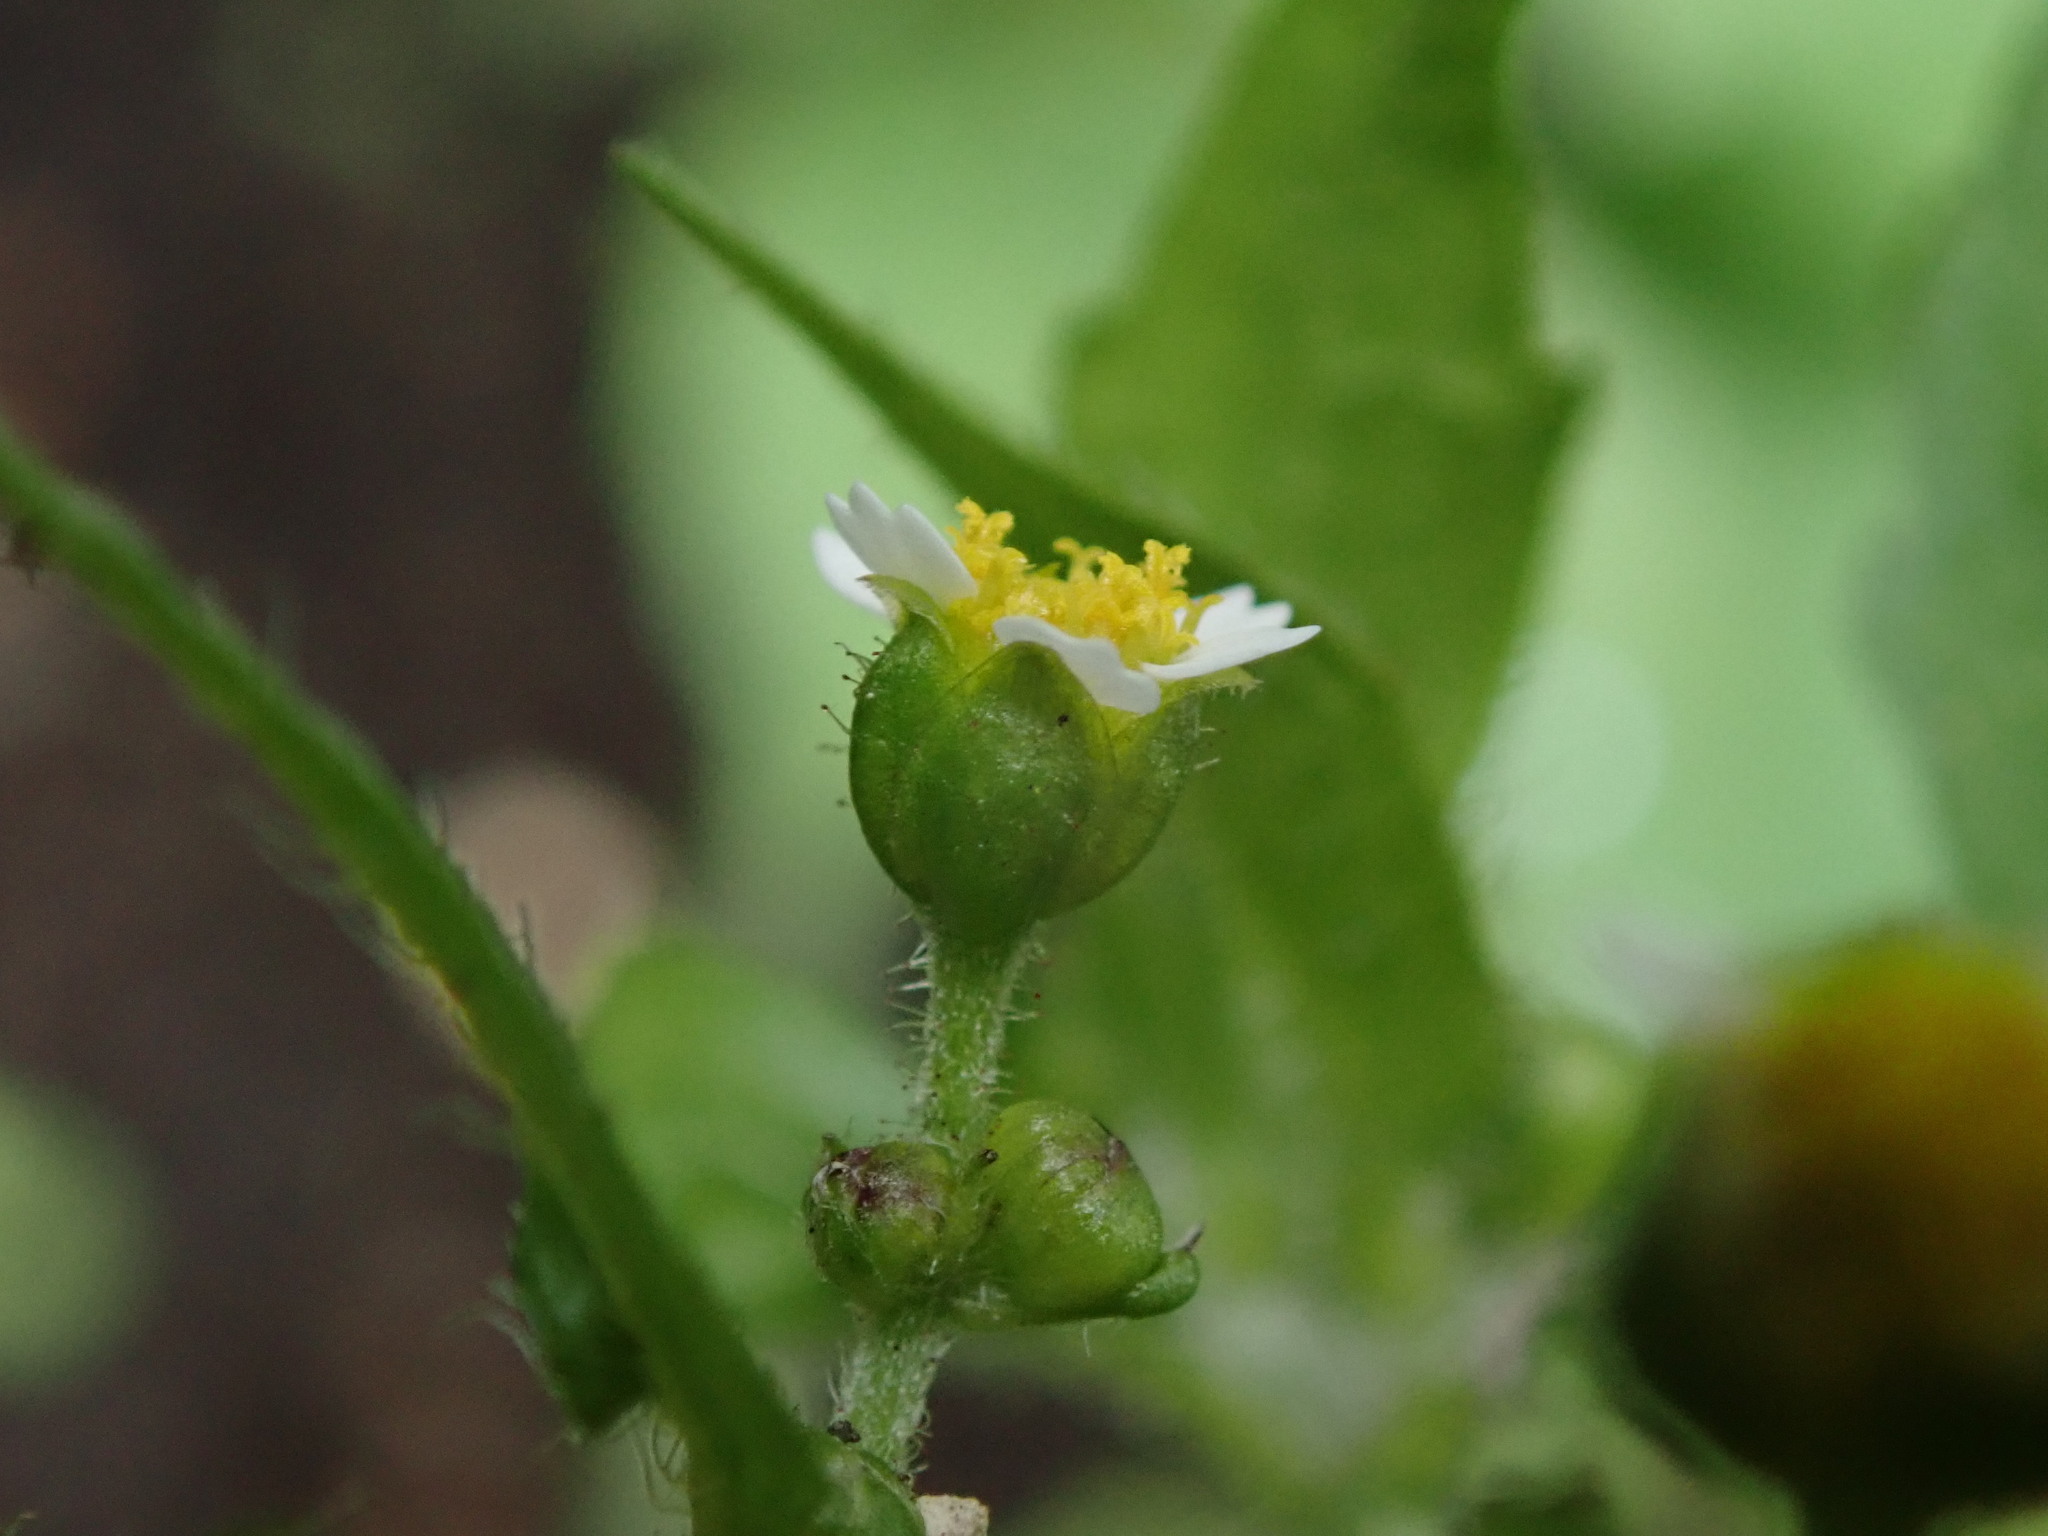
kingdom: Plantae
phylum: Tracheophyta
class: Magnoliopsida
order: Asterales
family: Asteraceae
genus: Galinsoga
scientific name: Galinsoga quadriradiata
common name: Shaggy soldier
